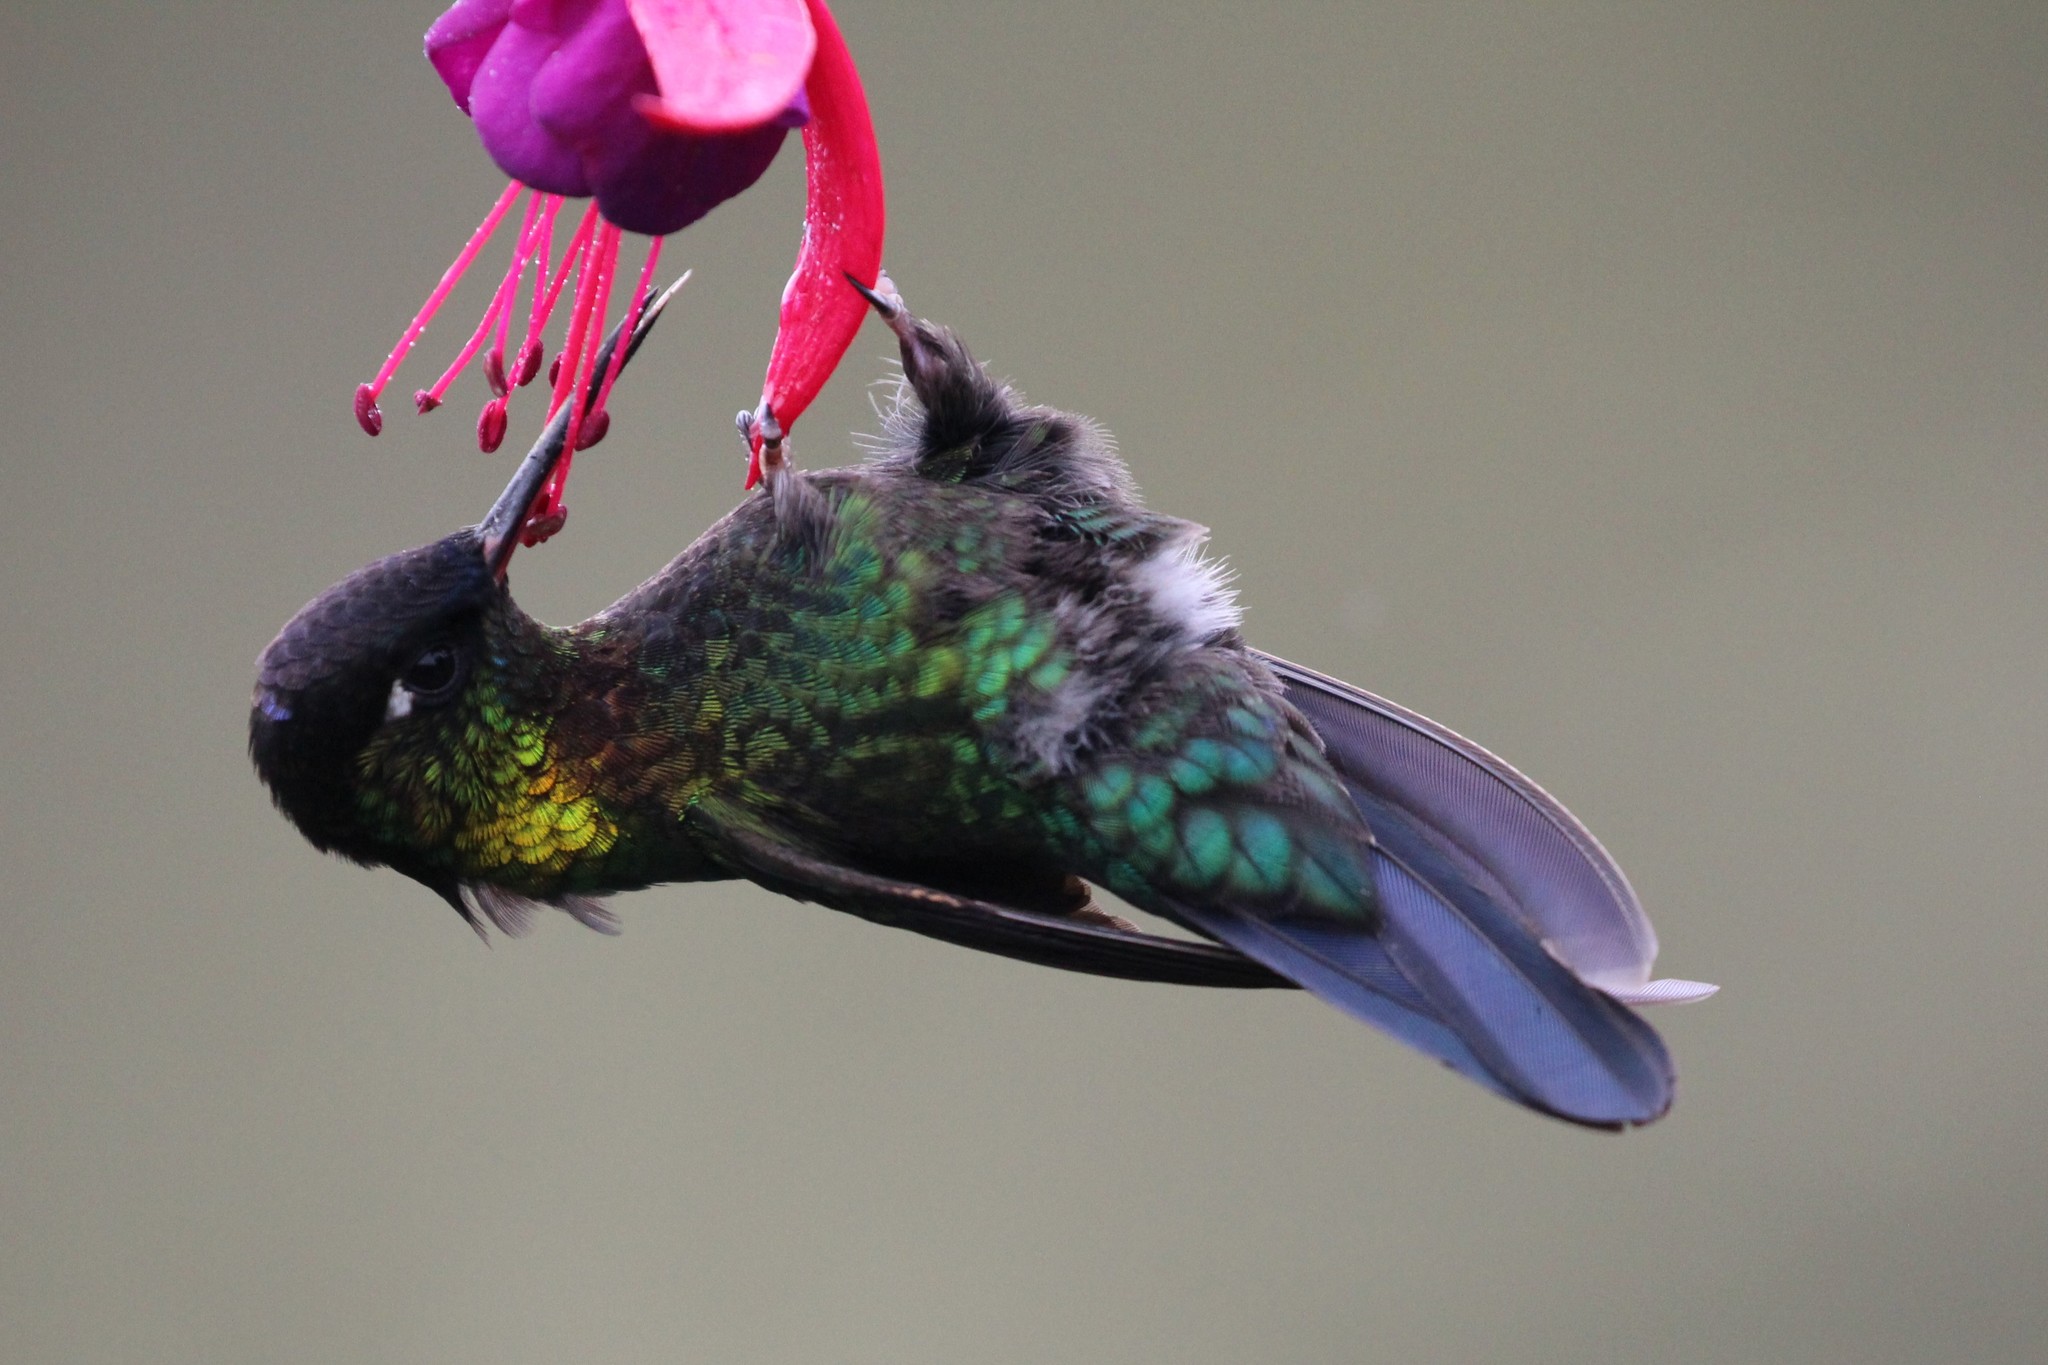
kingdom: Animalia
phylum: Chordata
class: Aves
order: Apodiformes
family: Trochilidae
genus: Panterpe
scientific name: Panterpe insignis
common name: Fiery-throated hummingbird
